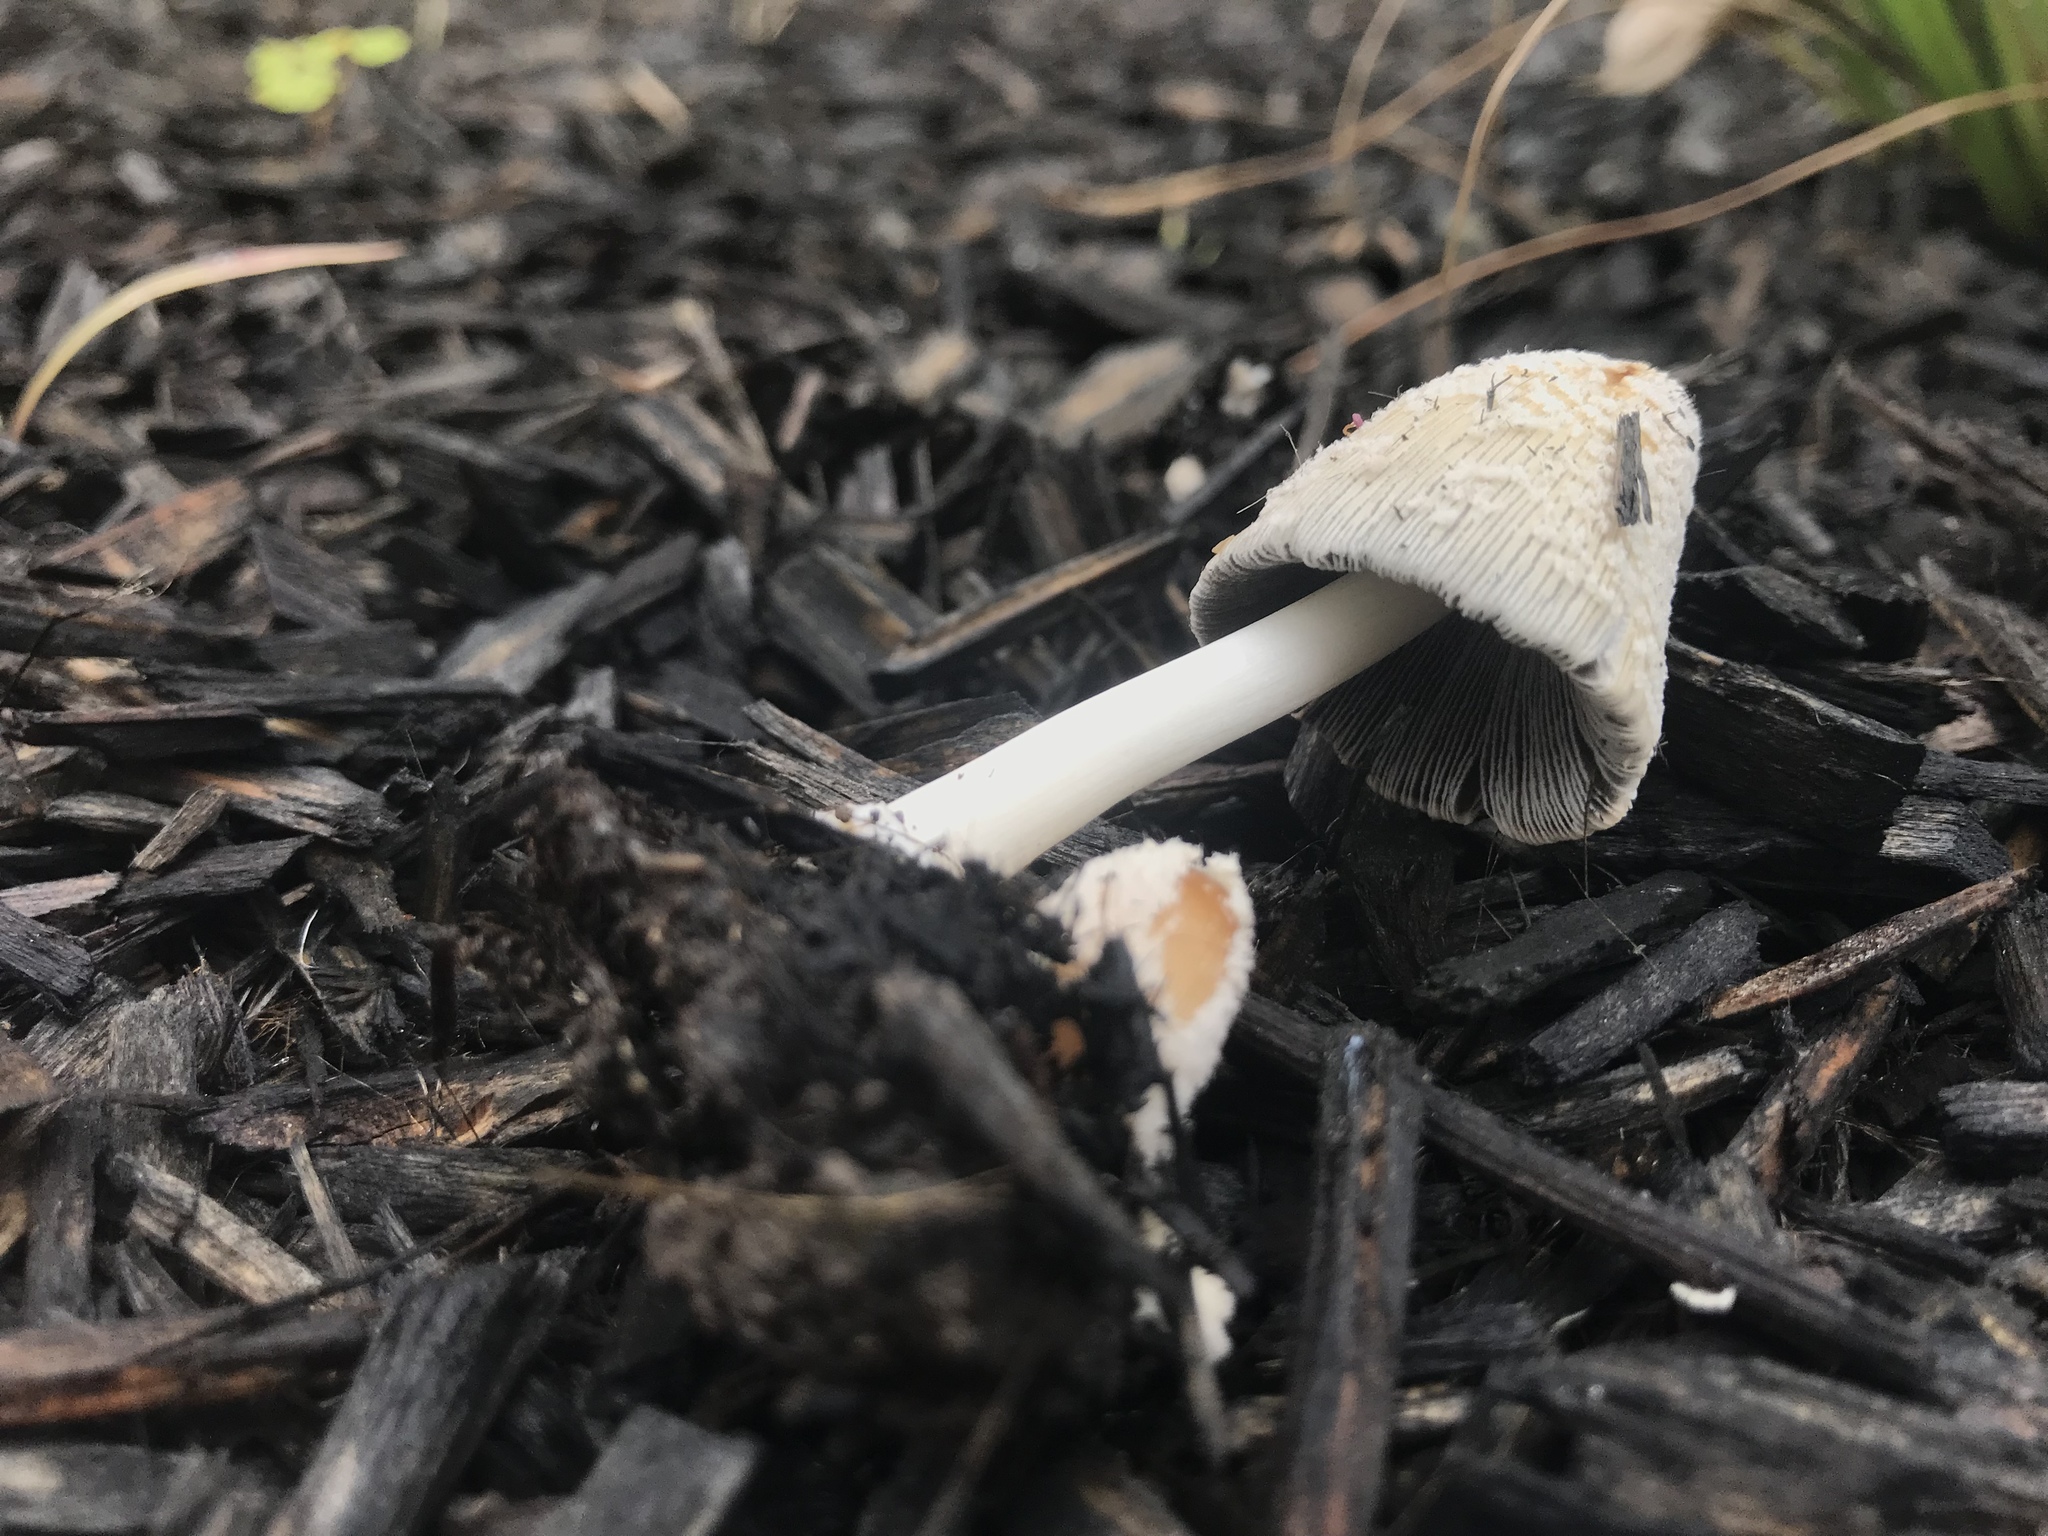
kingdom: Fungi
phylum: Basidiomycota
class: Agaricomycetes
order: Agaricales
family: Psathyrellaceae
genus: Coprinellus
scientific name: Coprinellus flocculosus
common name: Flocculose inkcap
